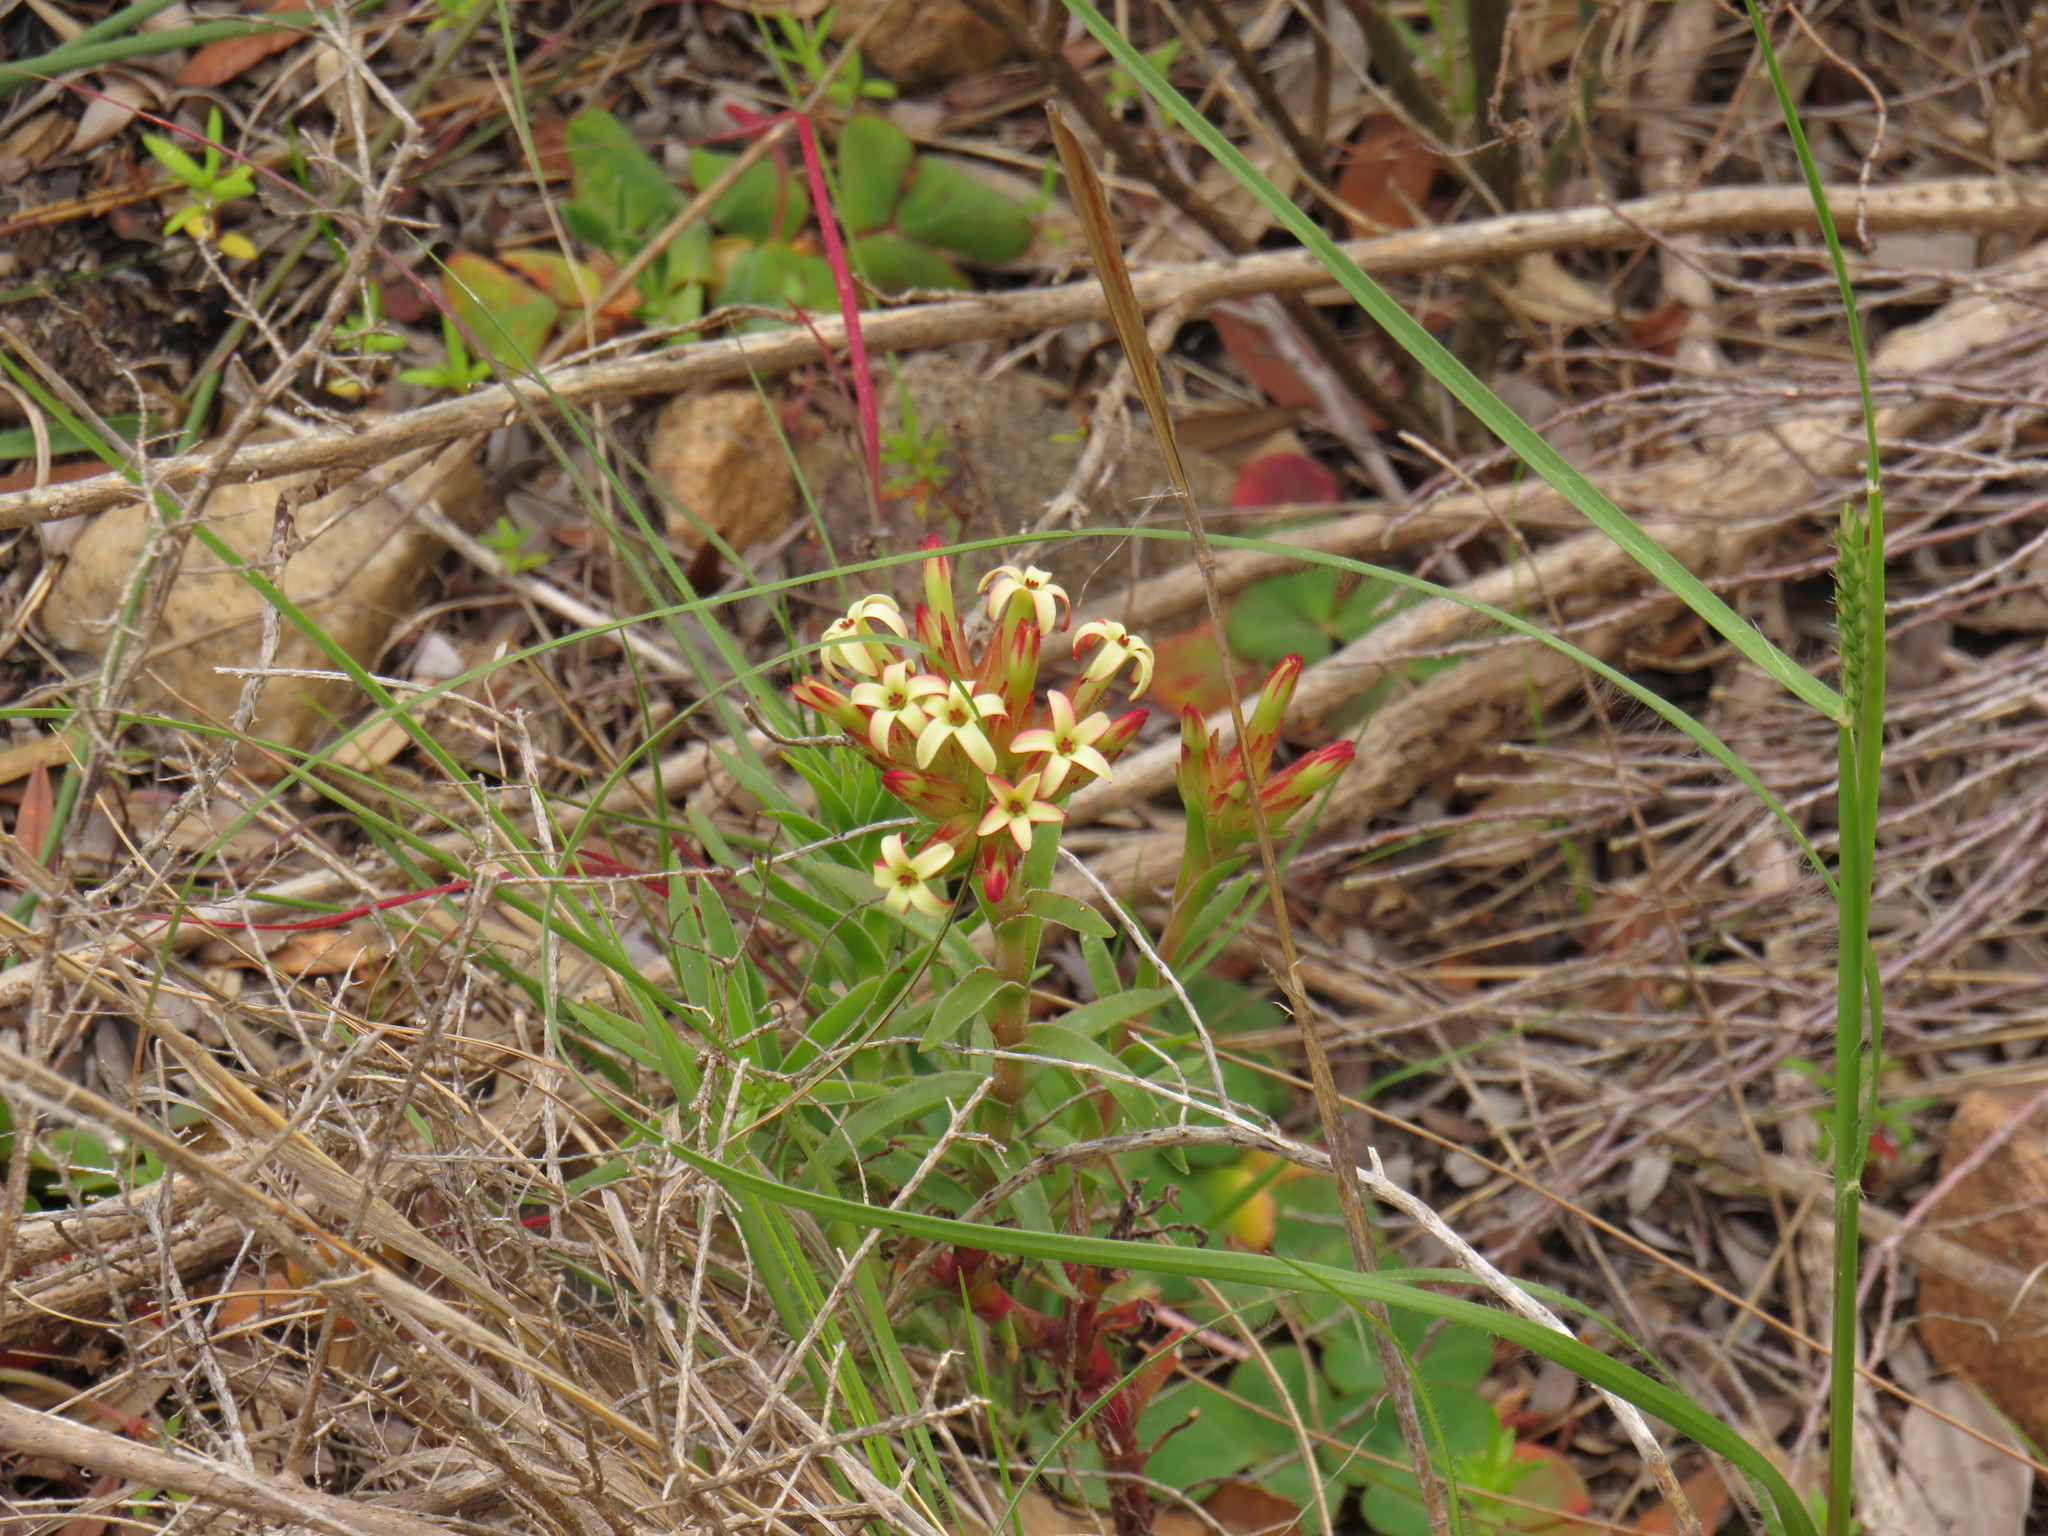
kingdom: Plantae
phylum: Tracheophyta
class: Magnoliopsida
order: Saxifragales
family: Crassulaceae
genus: Crassula
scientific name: Crassula fascicularis
